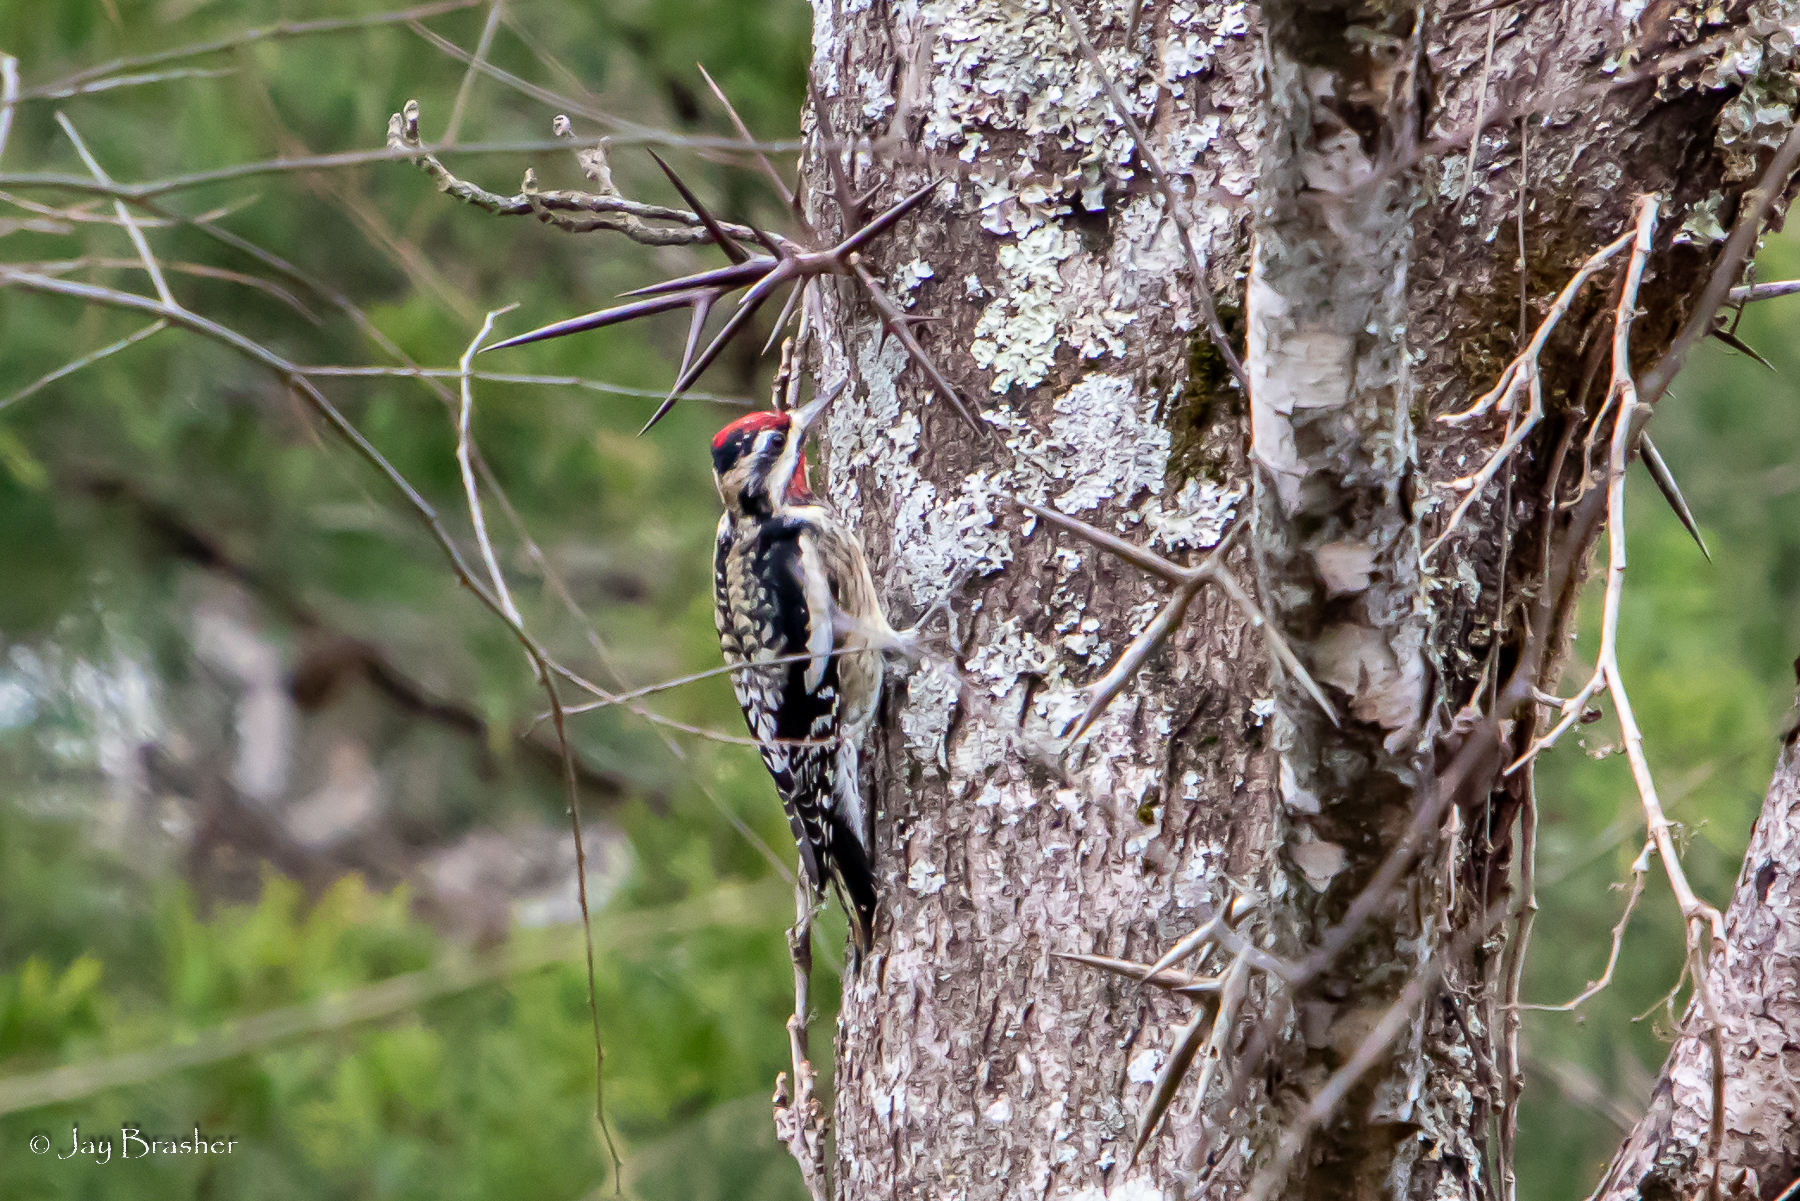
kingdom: Animalia
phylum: Chordata
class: Aves
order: Piciformes
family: Picidae
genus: Sphyrapicus
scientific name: Sphyrapicus varius
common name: Yellow-bellied sapsucker
